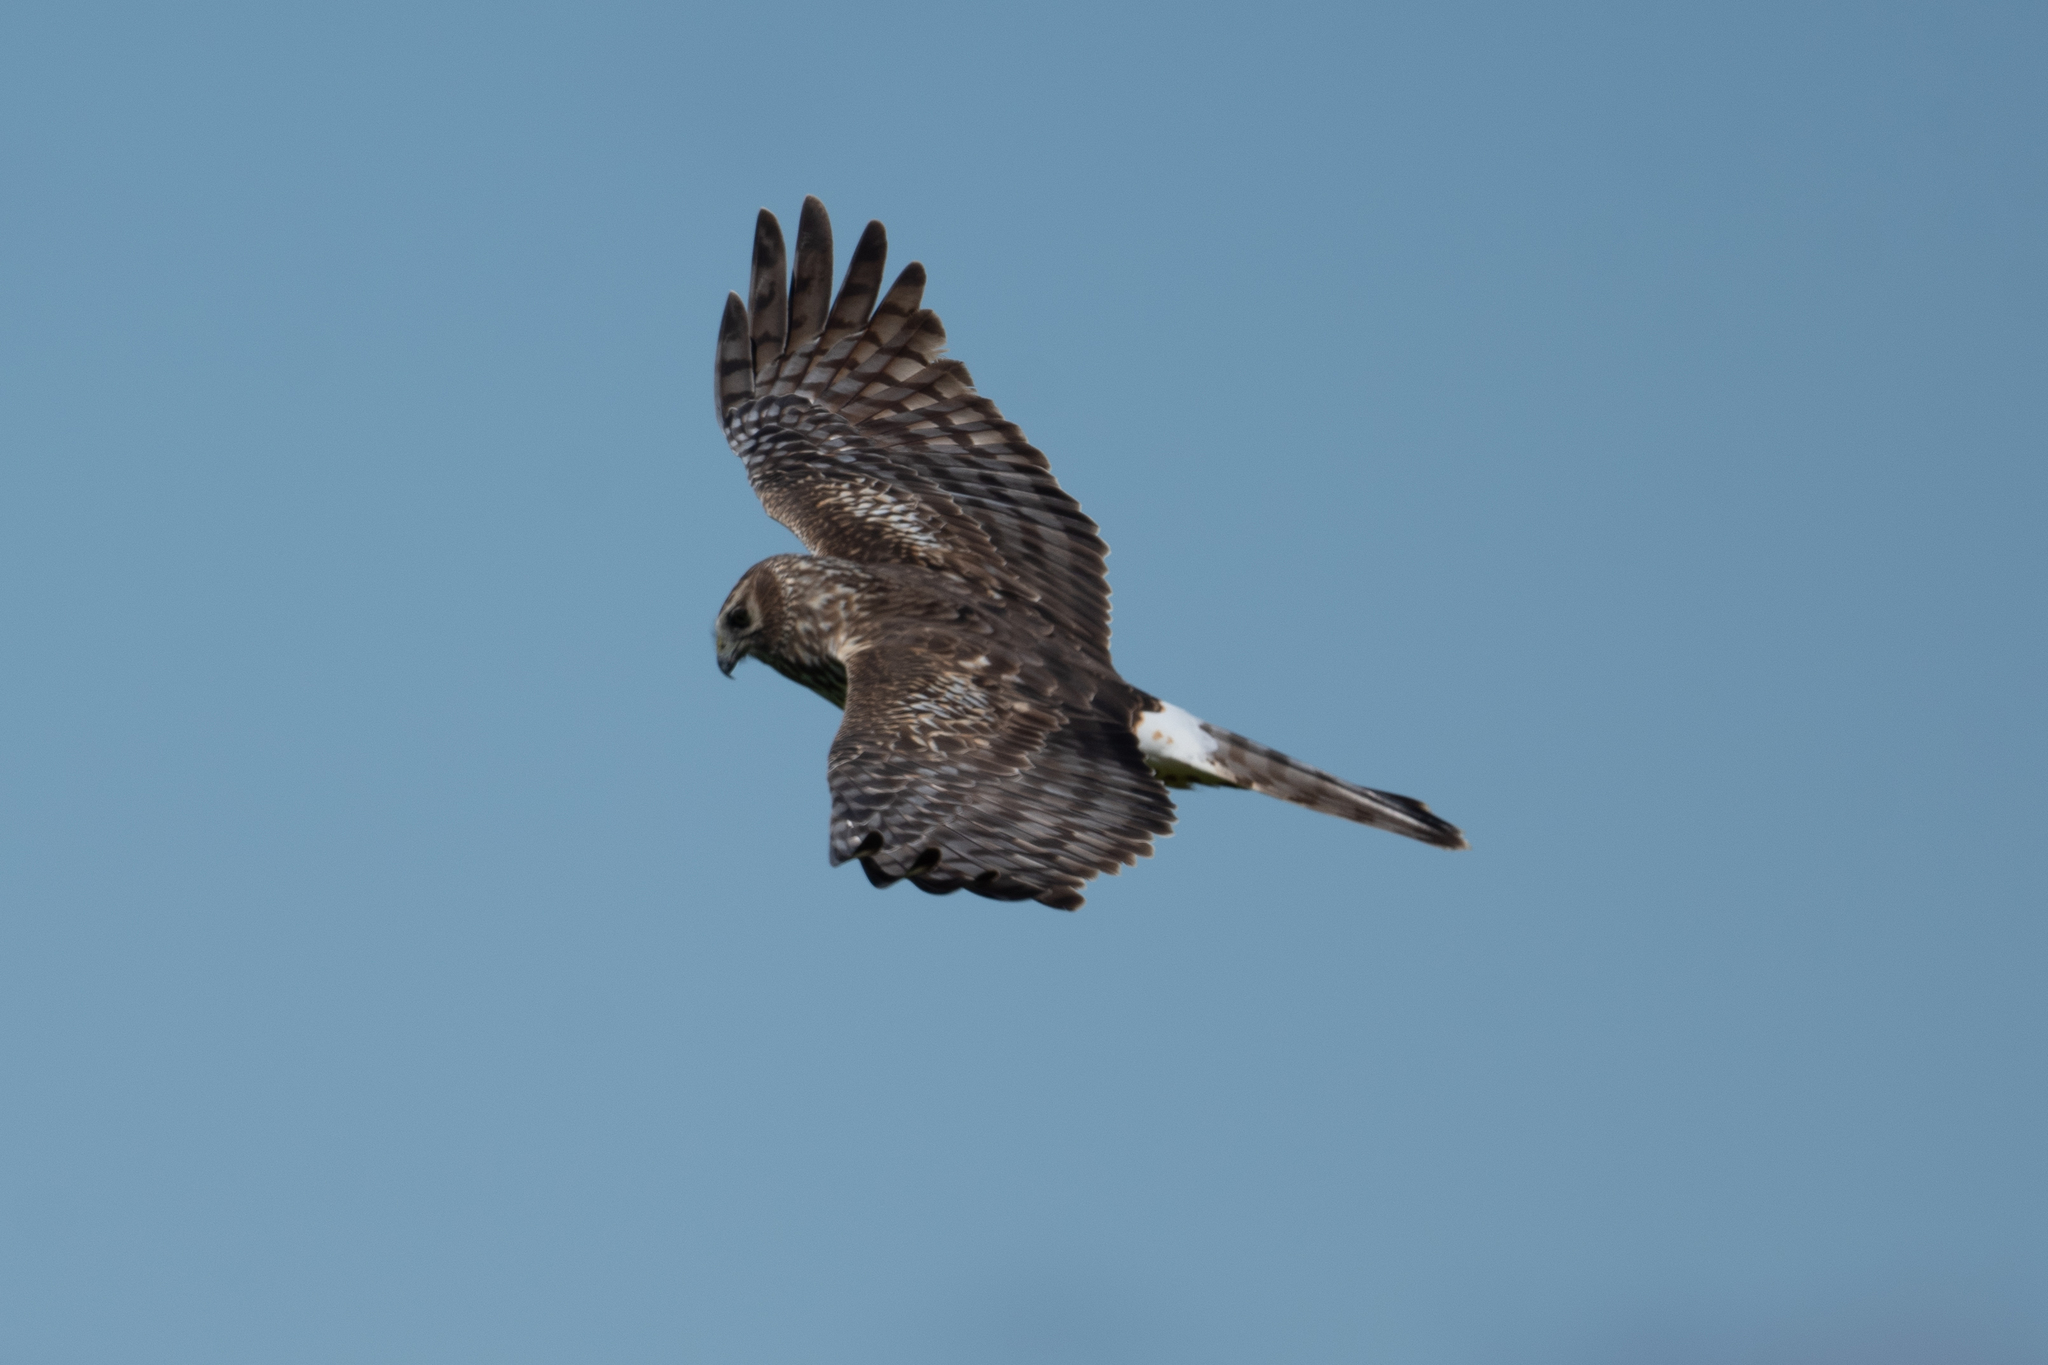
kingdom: Animalia
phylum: Chordata
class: Aves
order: Accipitriformes
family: Accipitridae
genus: Circus
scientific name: Circus cyaneus
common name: Hen harrier
